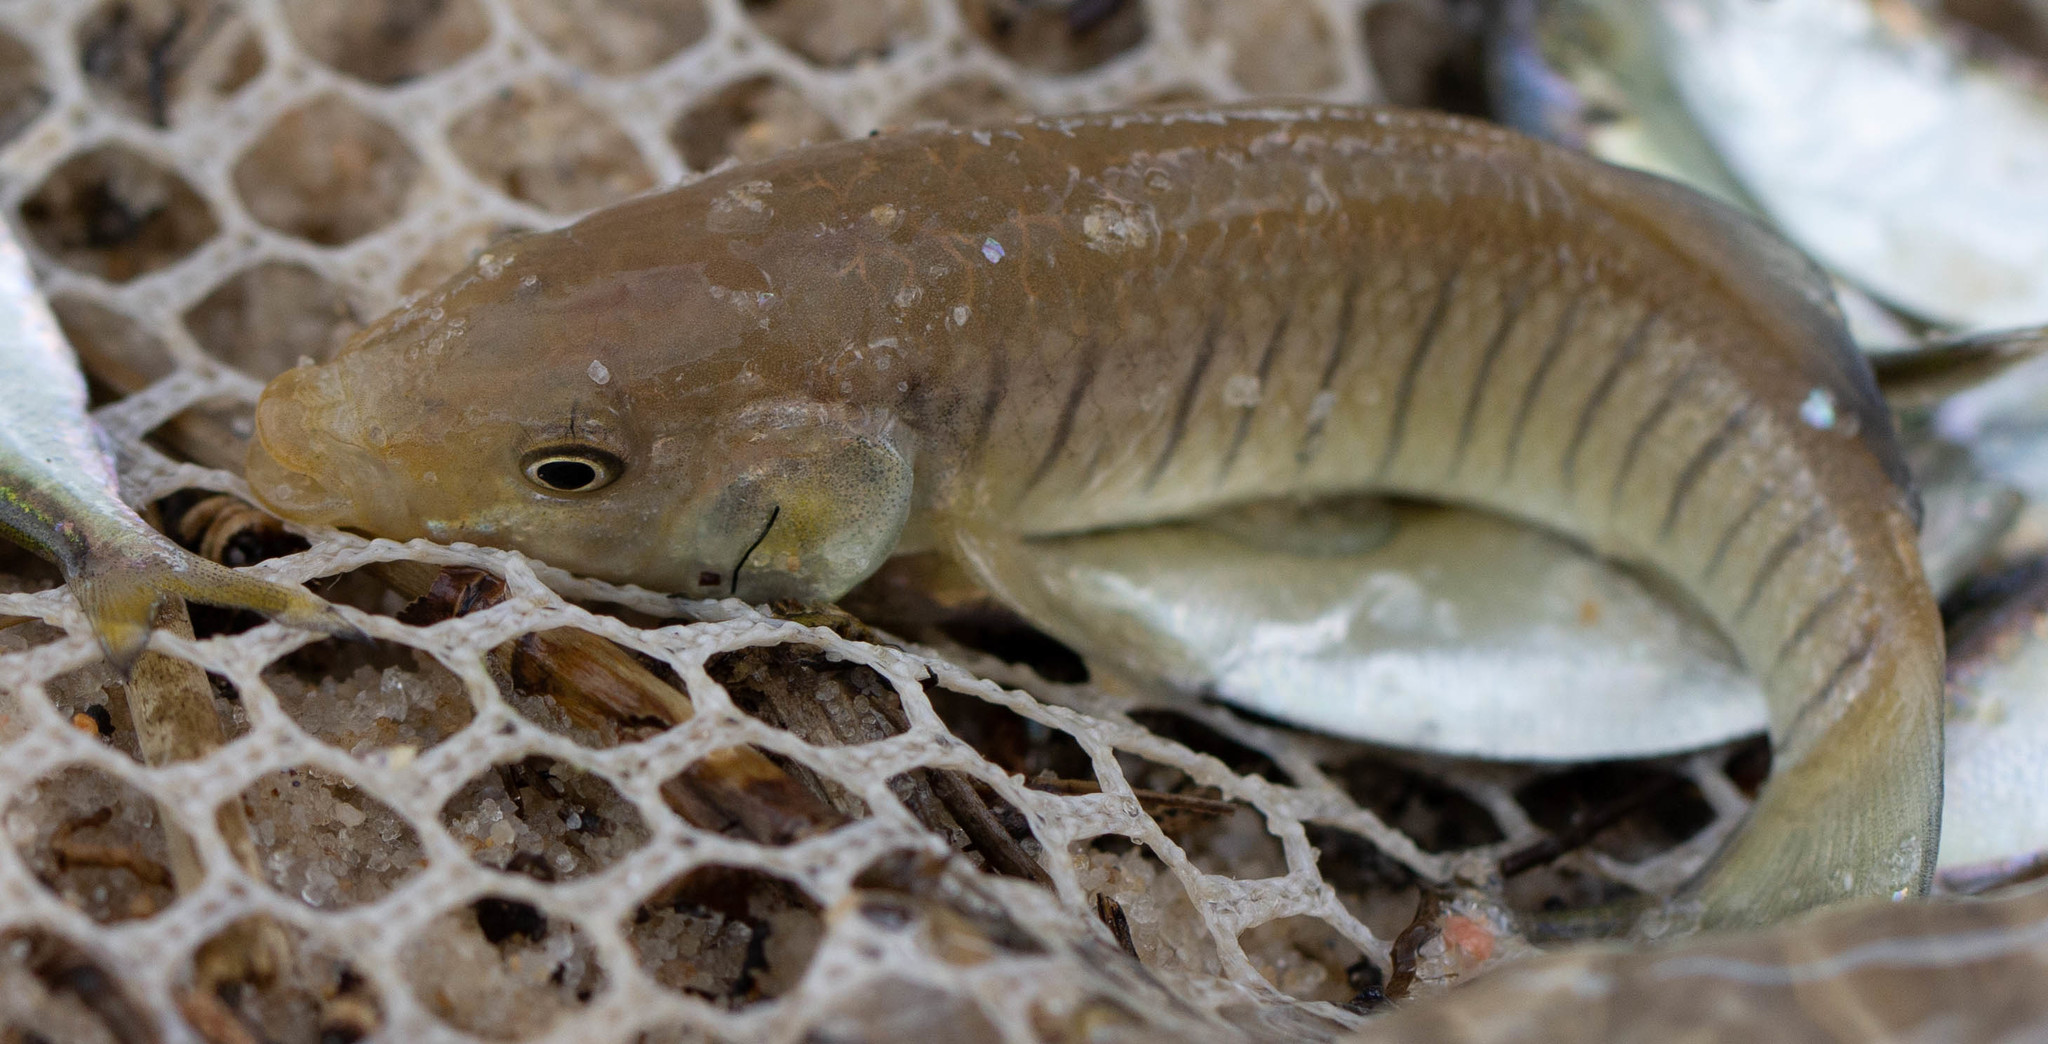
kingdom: Animalia
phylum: Chordata
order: Cyprinodontiformes
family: Fundulidae
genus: Fundulus
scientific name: Fundulus similis
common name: Longnose killifish
